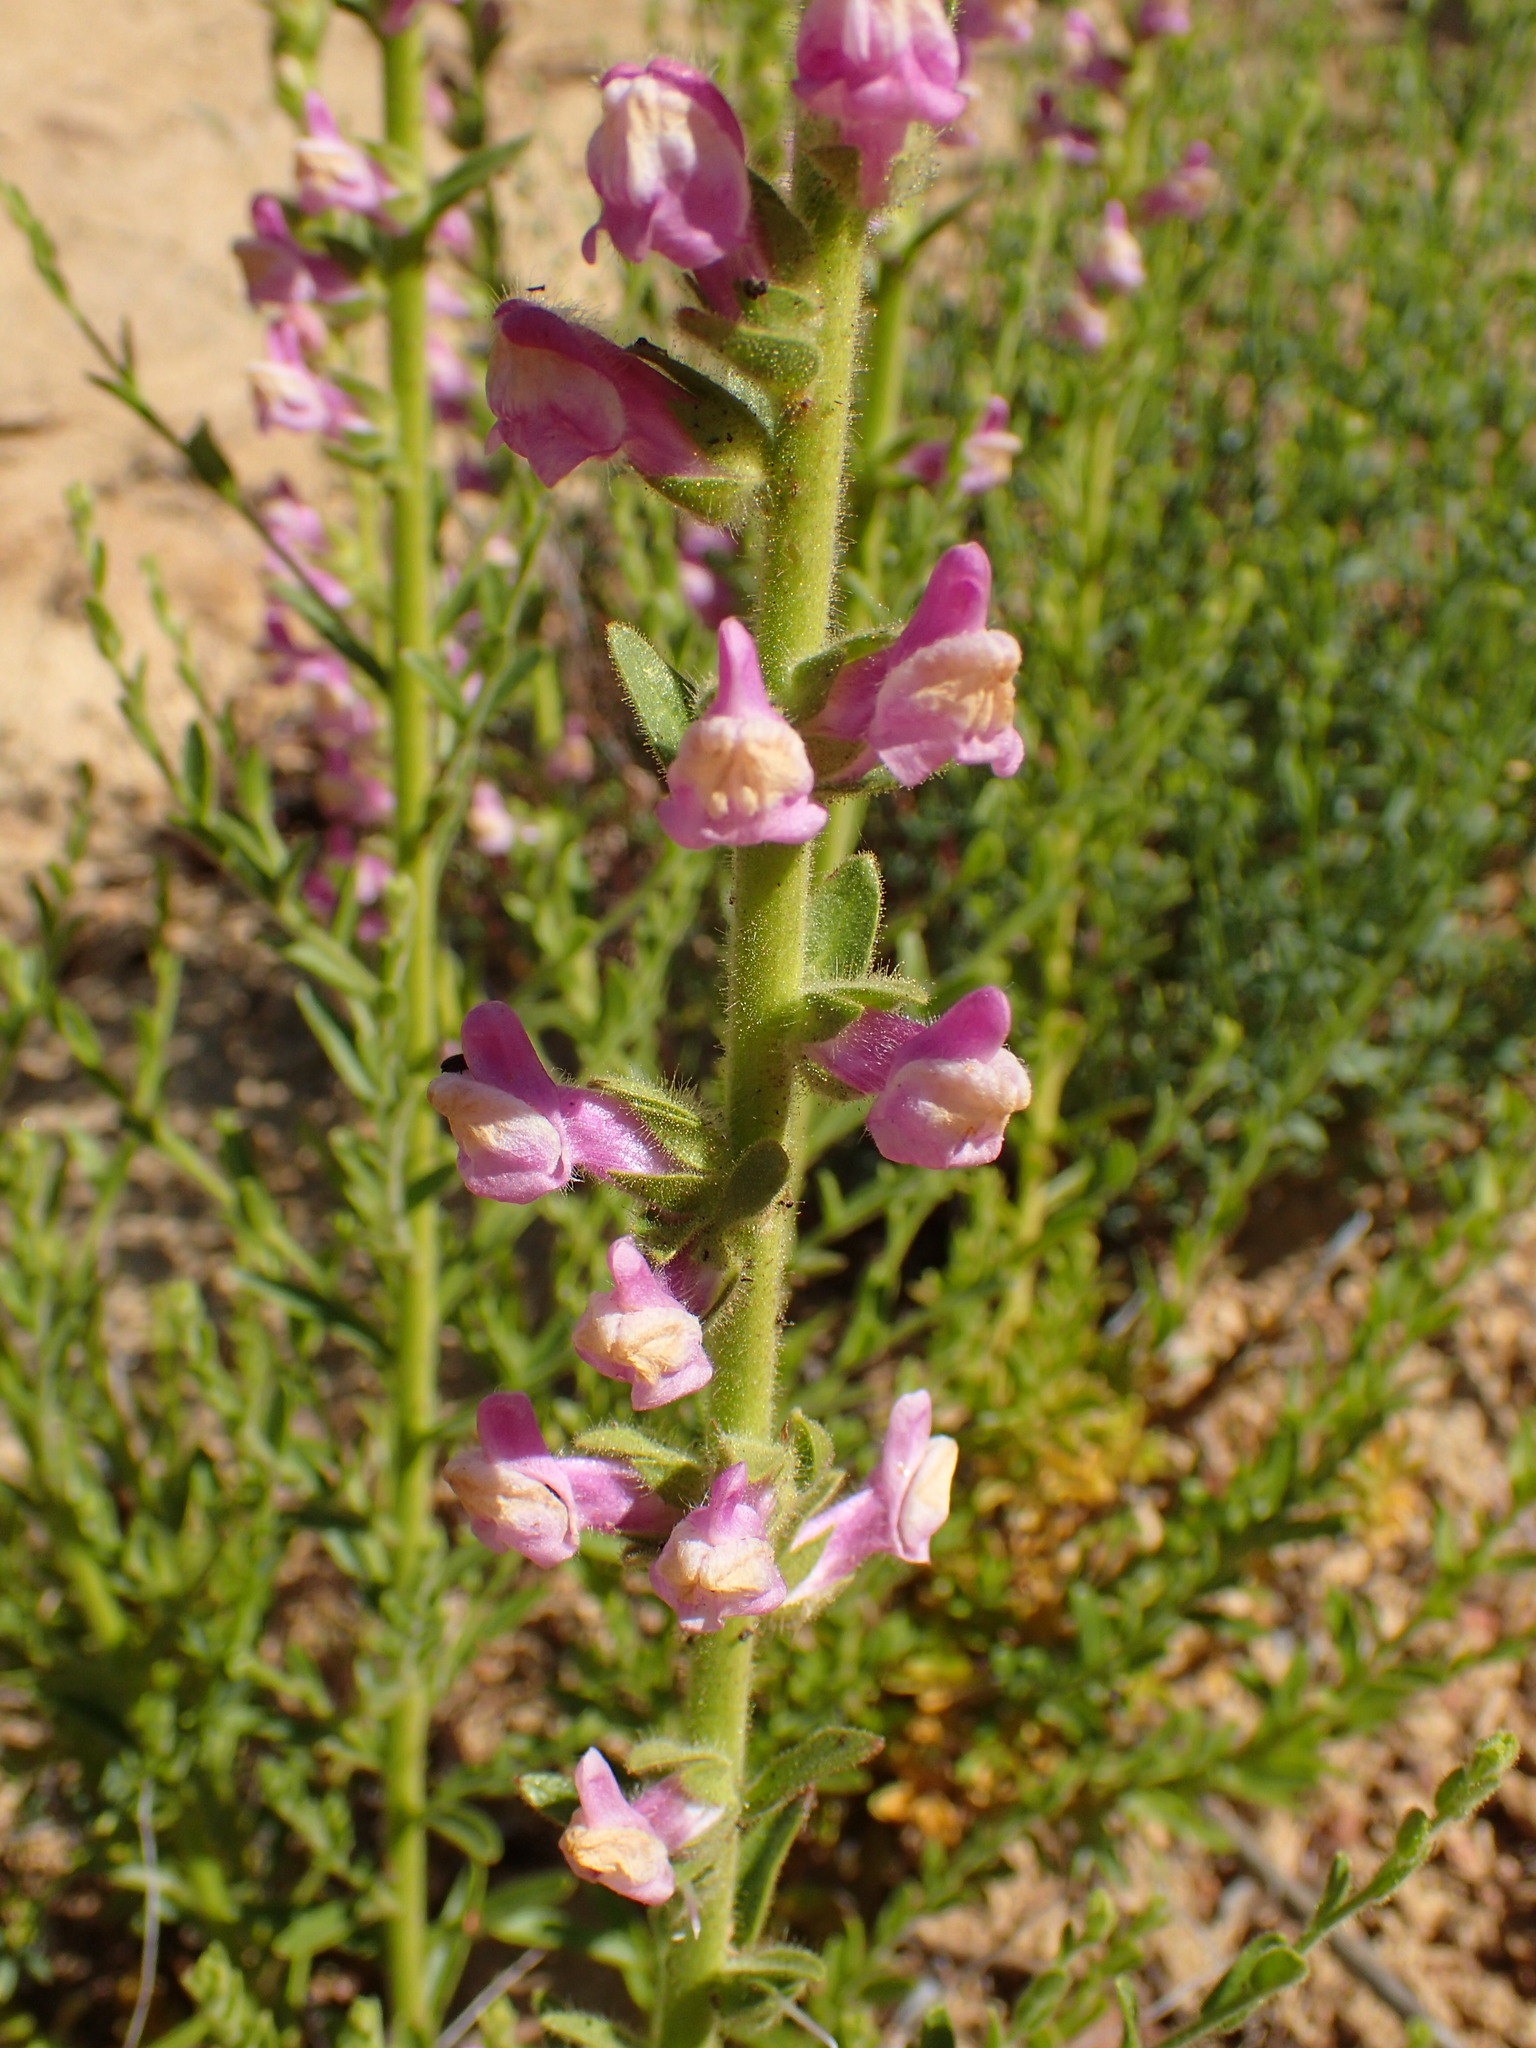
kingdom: Plantae
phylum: Tracheophyta
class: Magnoliopsida
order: Lamiales
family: Plantaginaceae
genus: Sairocarpus
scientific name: Sairocarpus multiflorus
